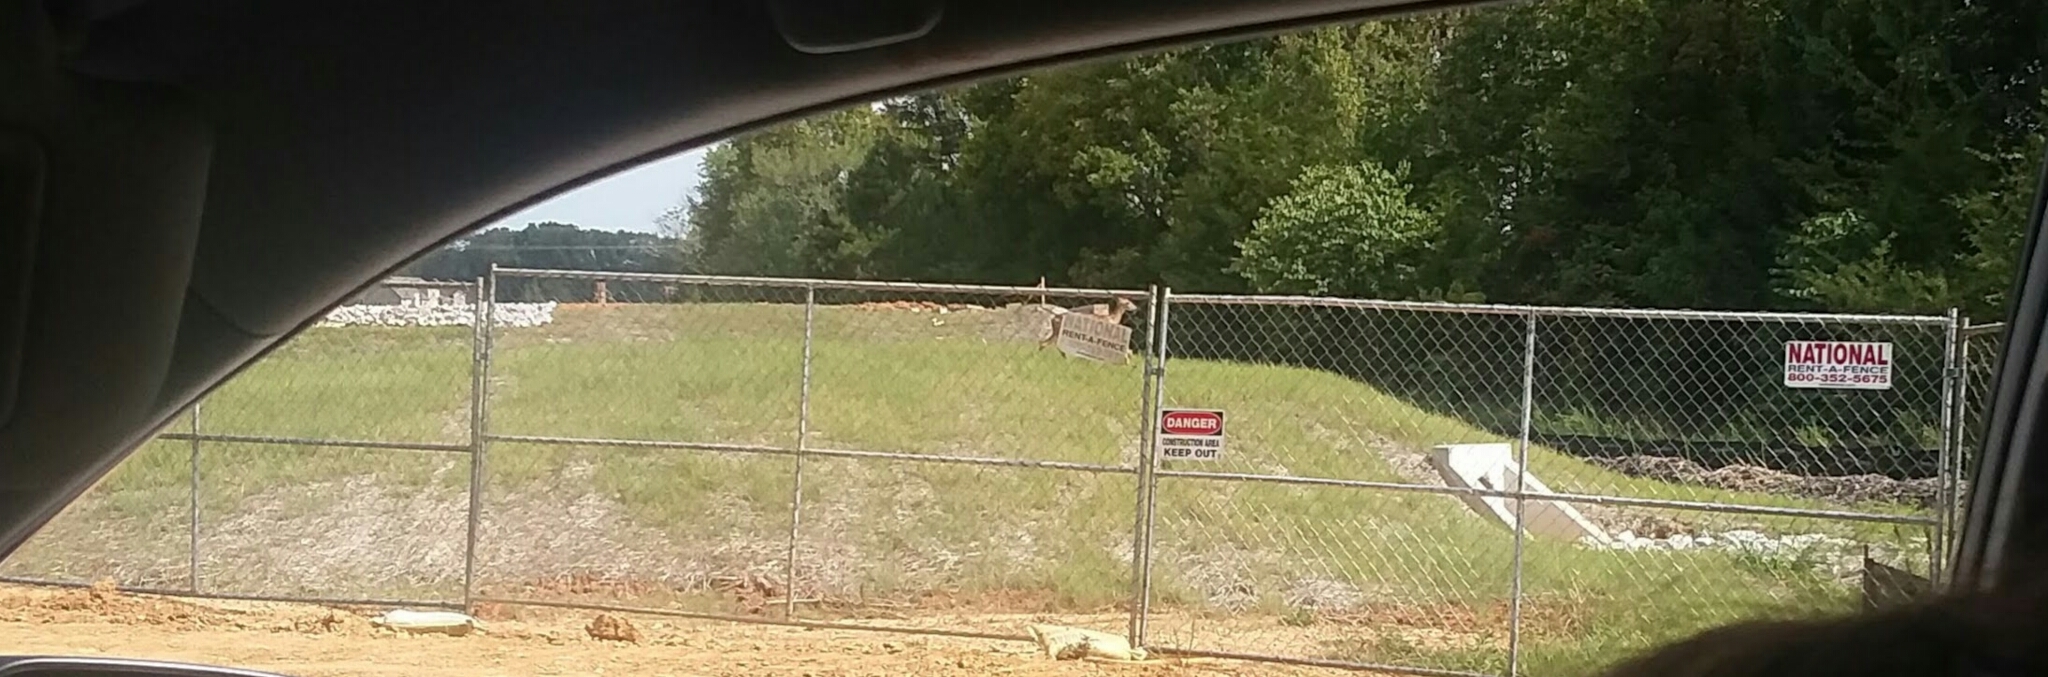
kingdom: Animalia
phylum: Chordata
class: Mammalia
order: Artiodactyla
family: Cervidae
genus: Odocoileus
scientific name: Odocoileus virginianus
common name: White-tailed deer
